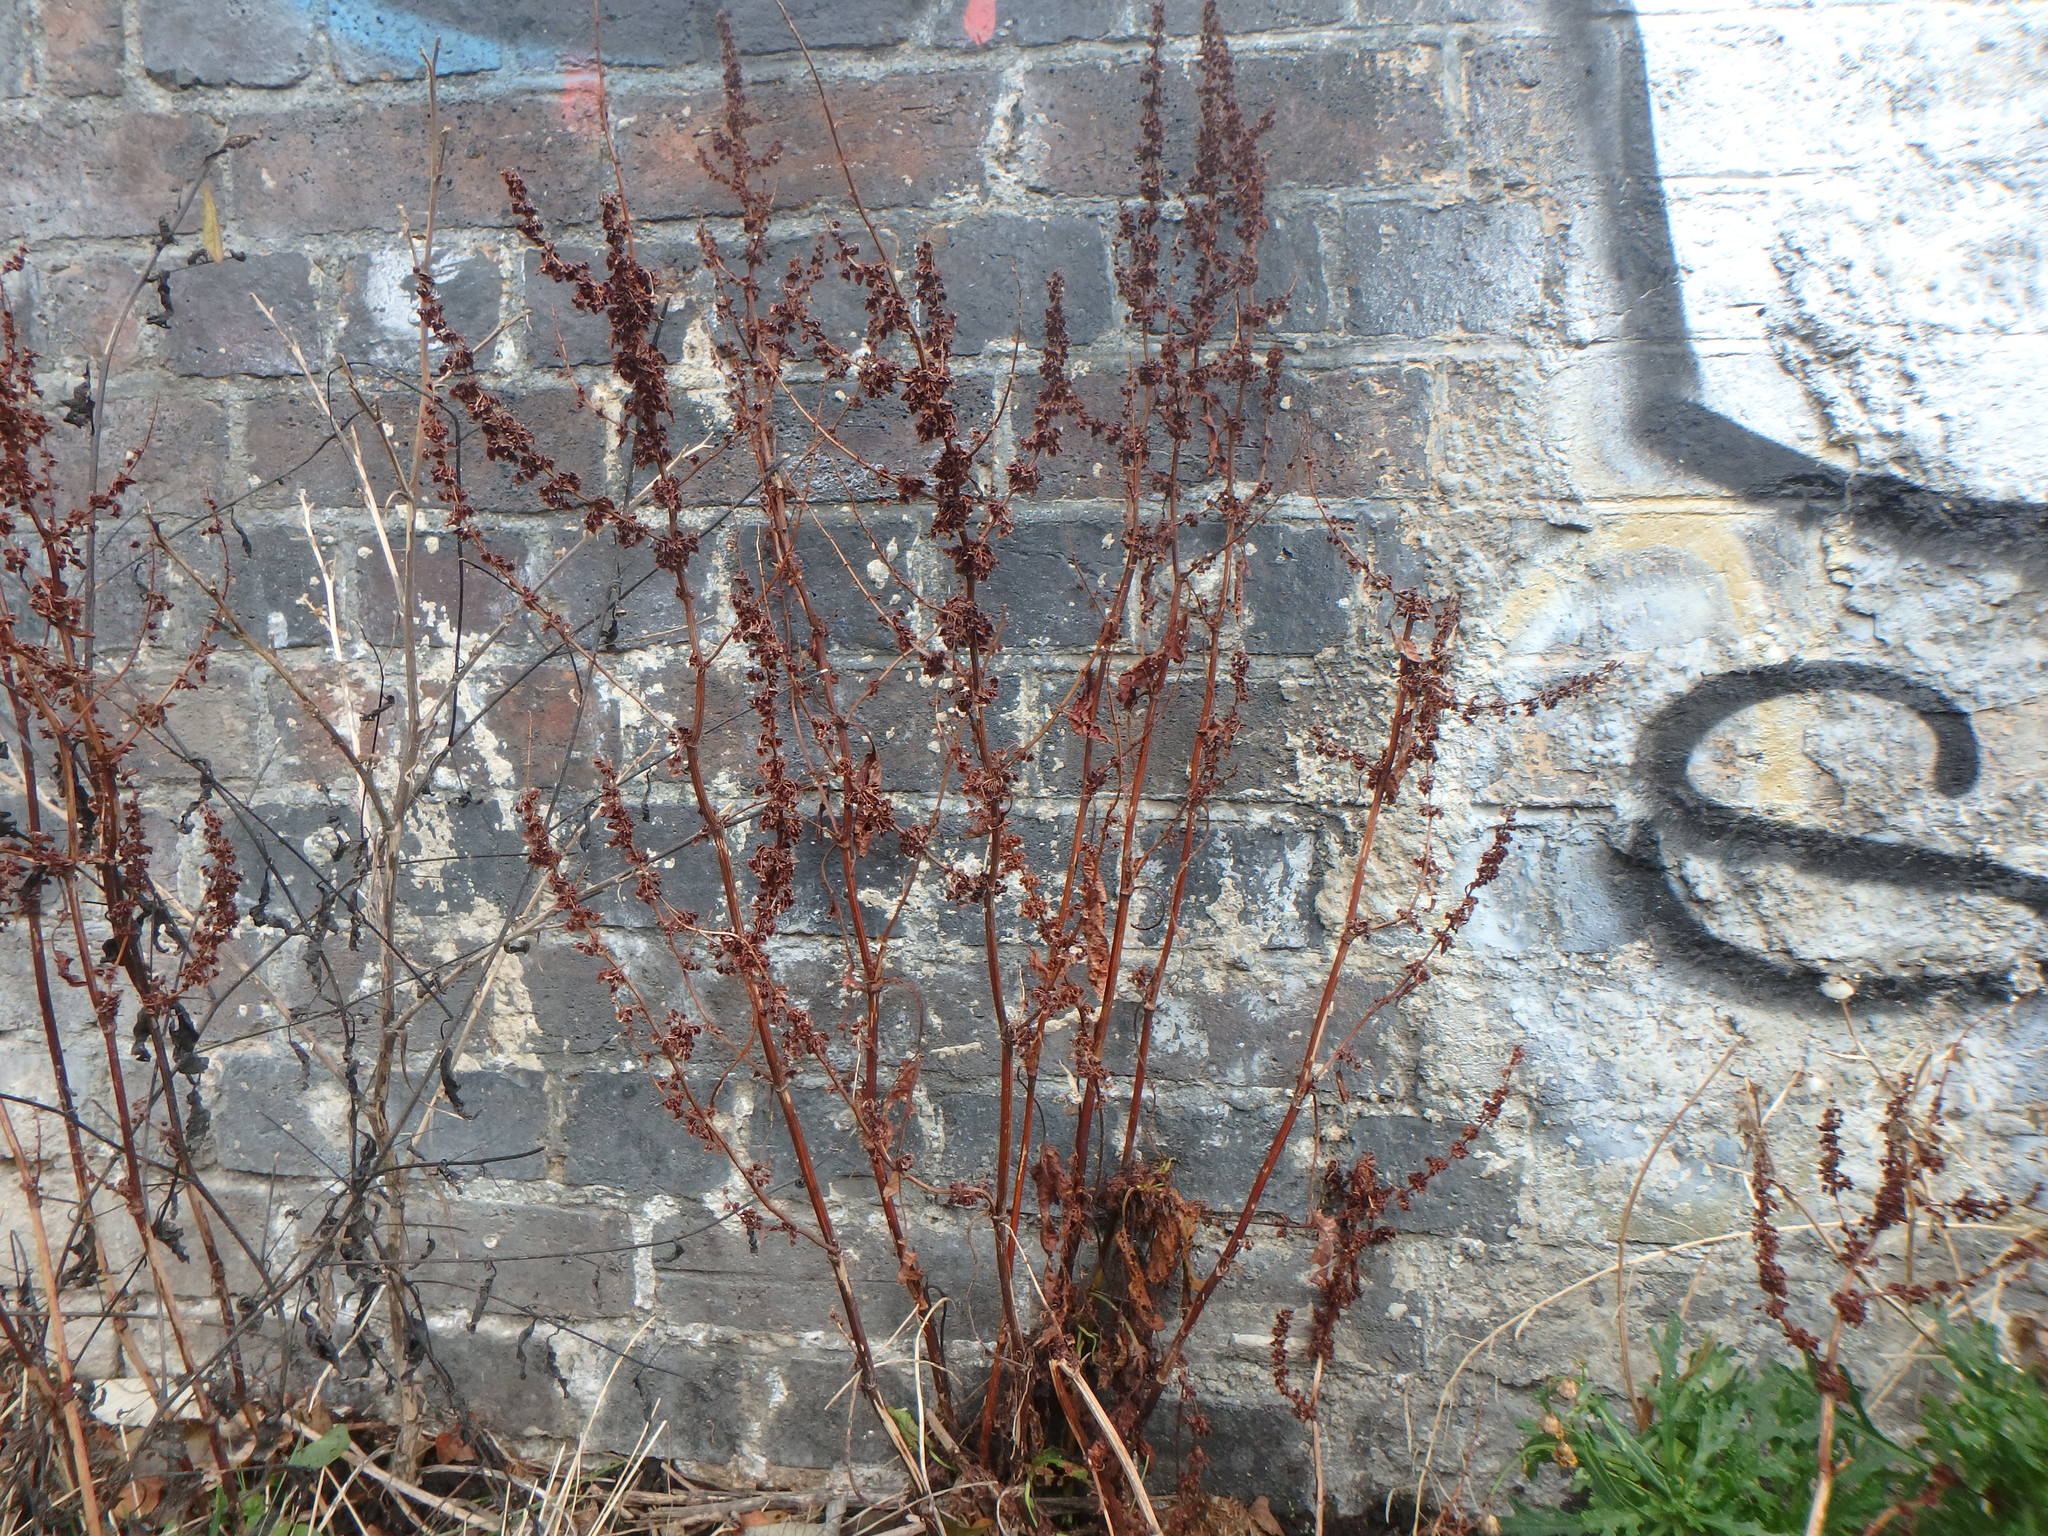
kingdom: Plantae
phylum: Tracheophyta
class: Magnoliopsida
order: Caryophyllales
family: Polygonaceae
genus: Rumex
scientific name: Rumex obtusifolius
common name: Bitter dock
